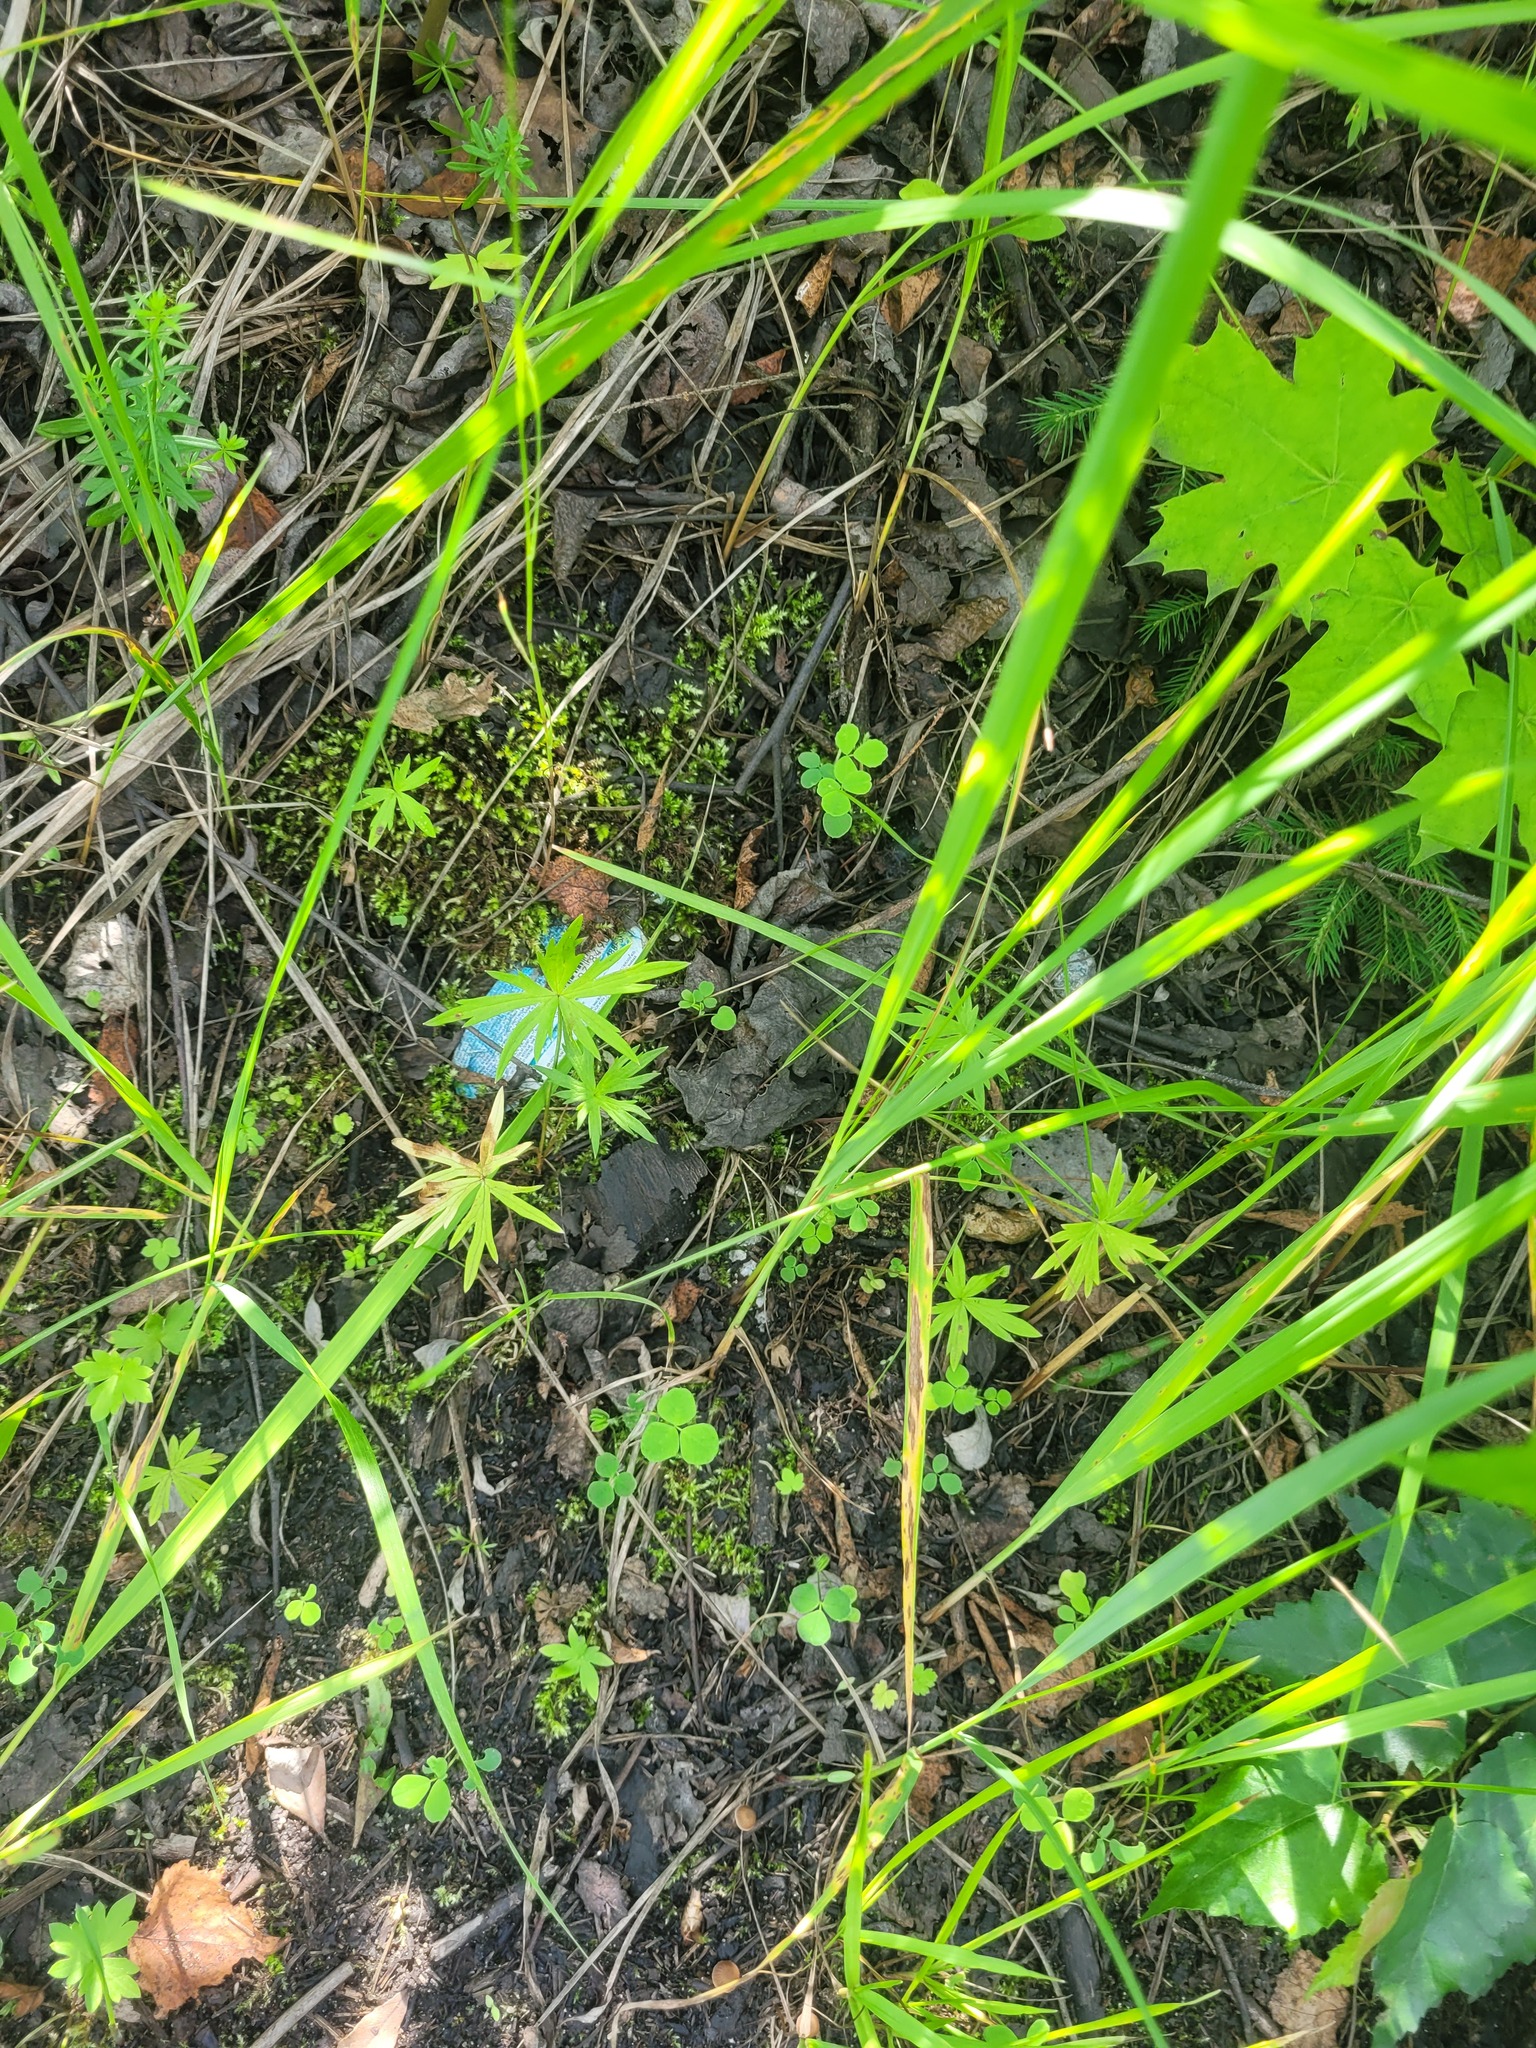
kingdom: Plantae
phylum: Tracheophyta
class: Magnoliopsida
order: Ranunculales
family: Ranunculaceae
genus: Ranunculus
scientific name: Ranunculus acris
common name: Meadow buttercup
